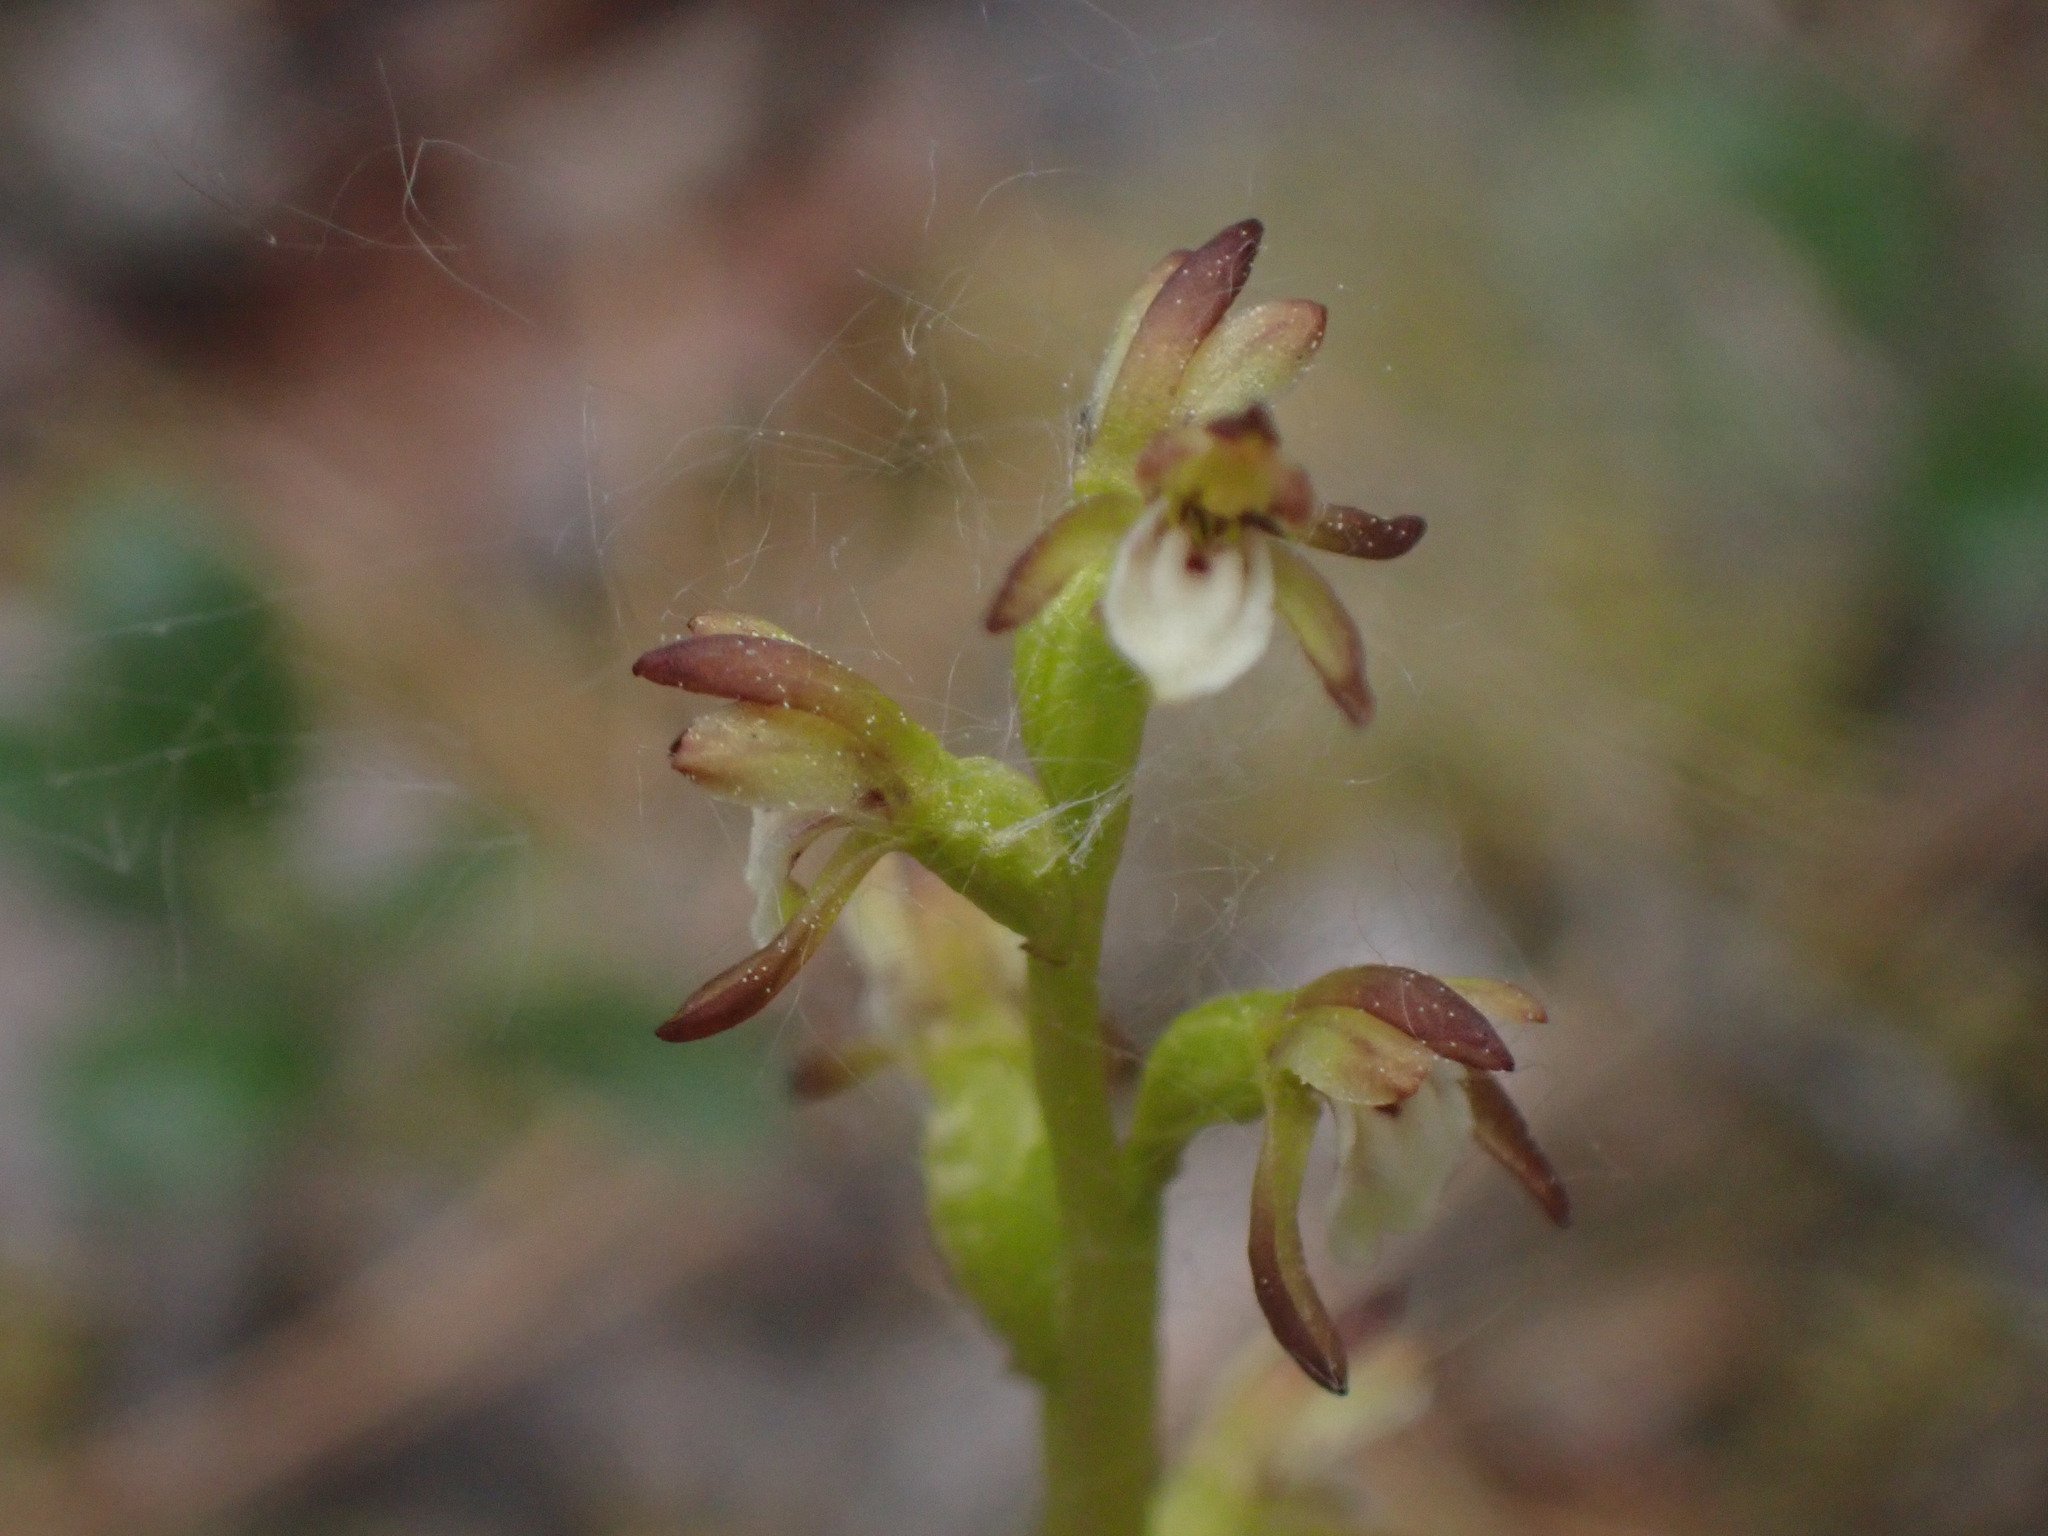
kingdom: Plantae
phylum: Tracheophyta
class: Liliopsida
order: Asparagales
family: Orchidaceae
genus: Corallorhiza
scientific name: Corallorhiza trifida
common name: Yellow coralroot
